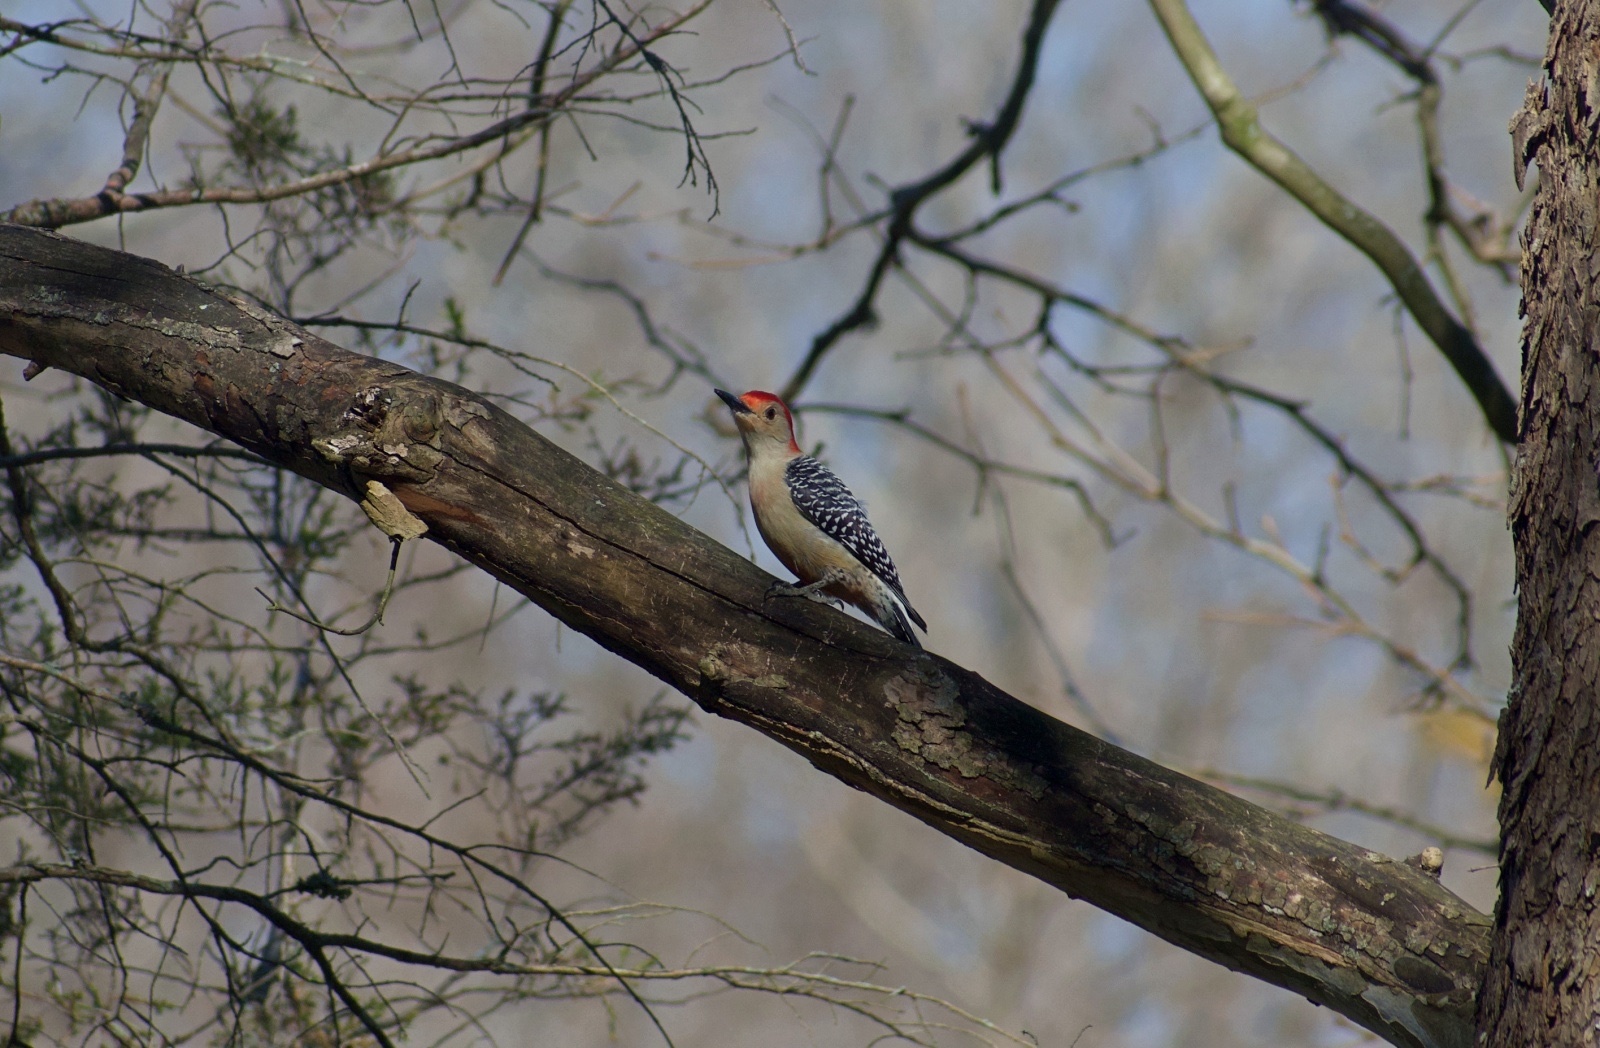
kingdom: Animalia
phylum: Chordata
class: Aves
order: Piciformes
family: Picidae
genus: Melanerpes
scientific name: Melanerpes carolinus
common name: Red-bellied woodpecker
